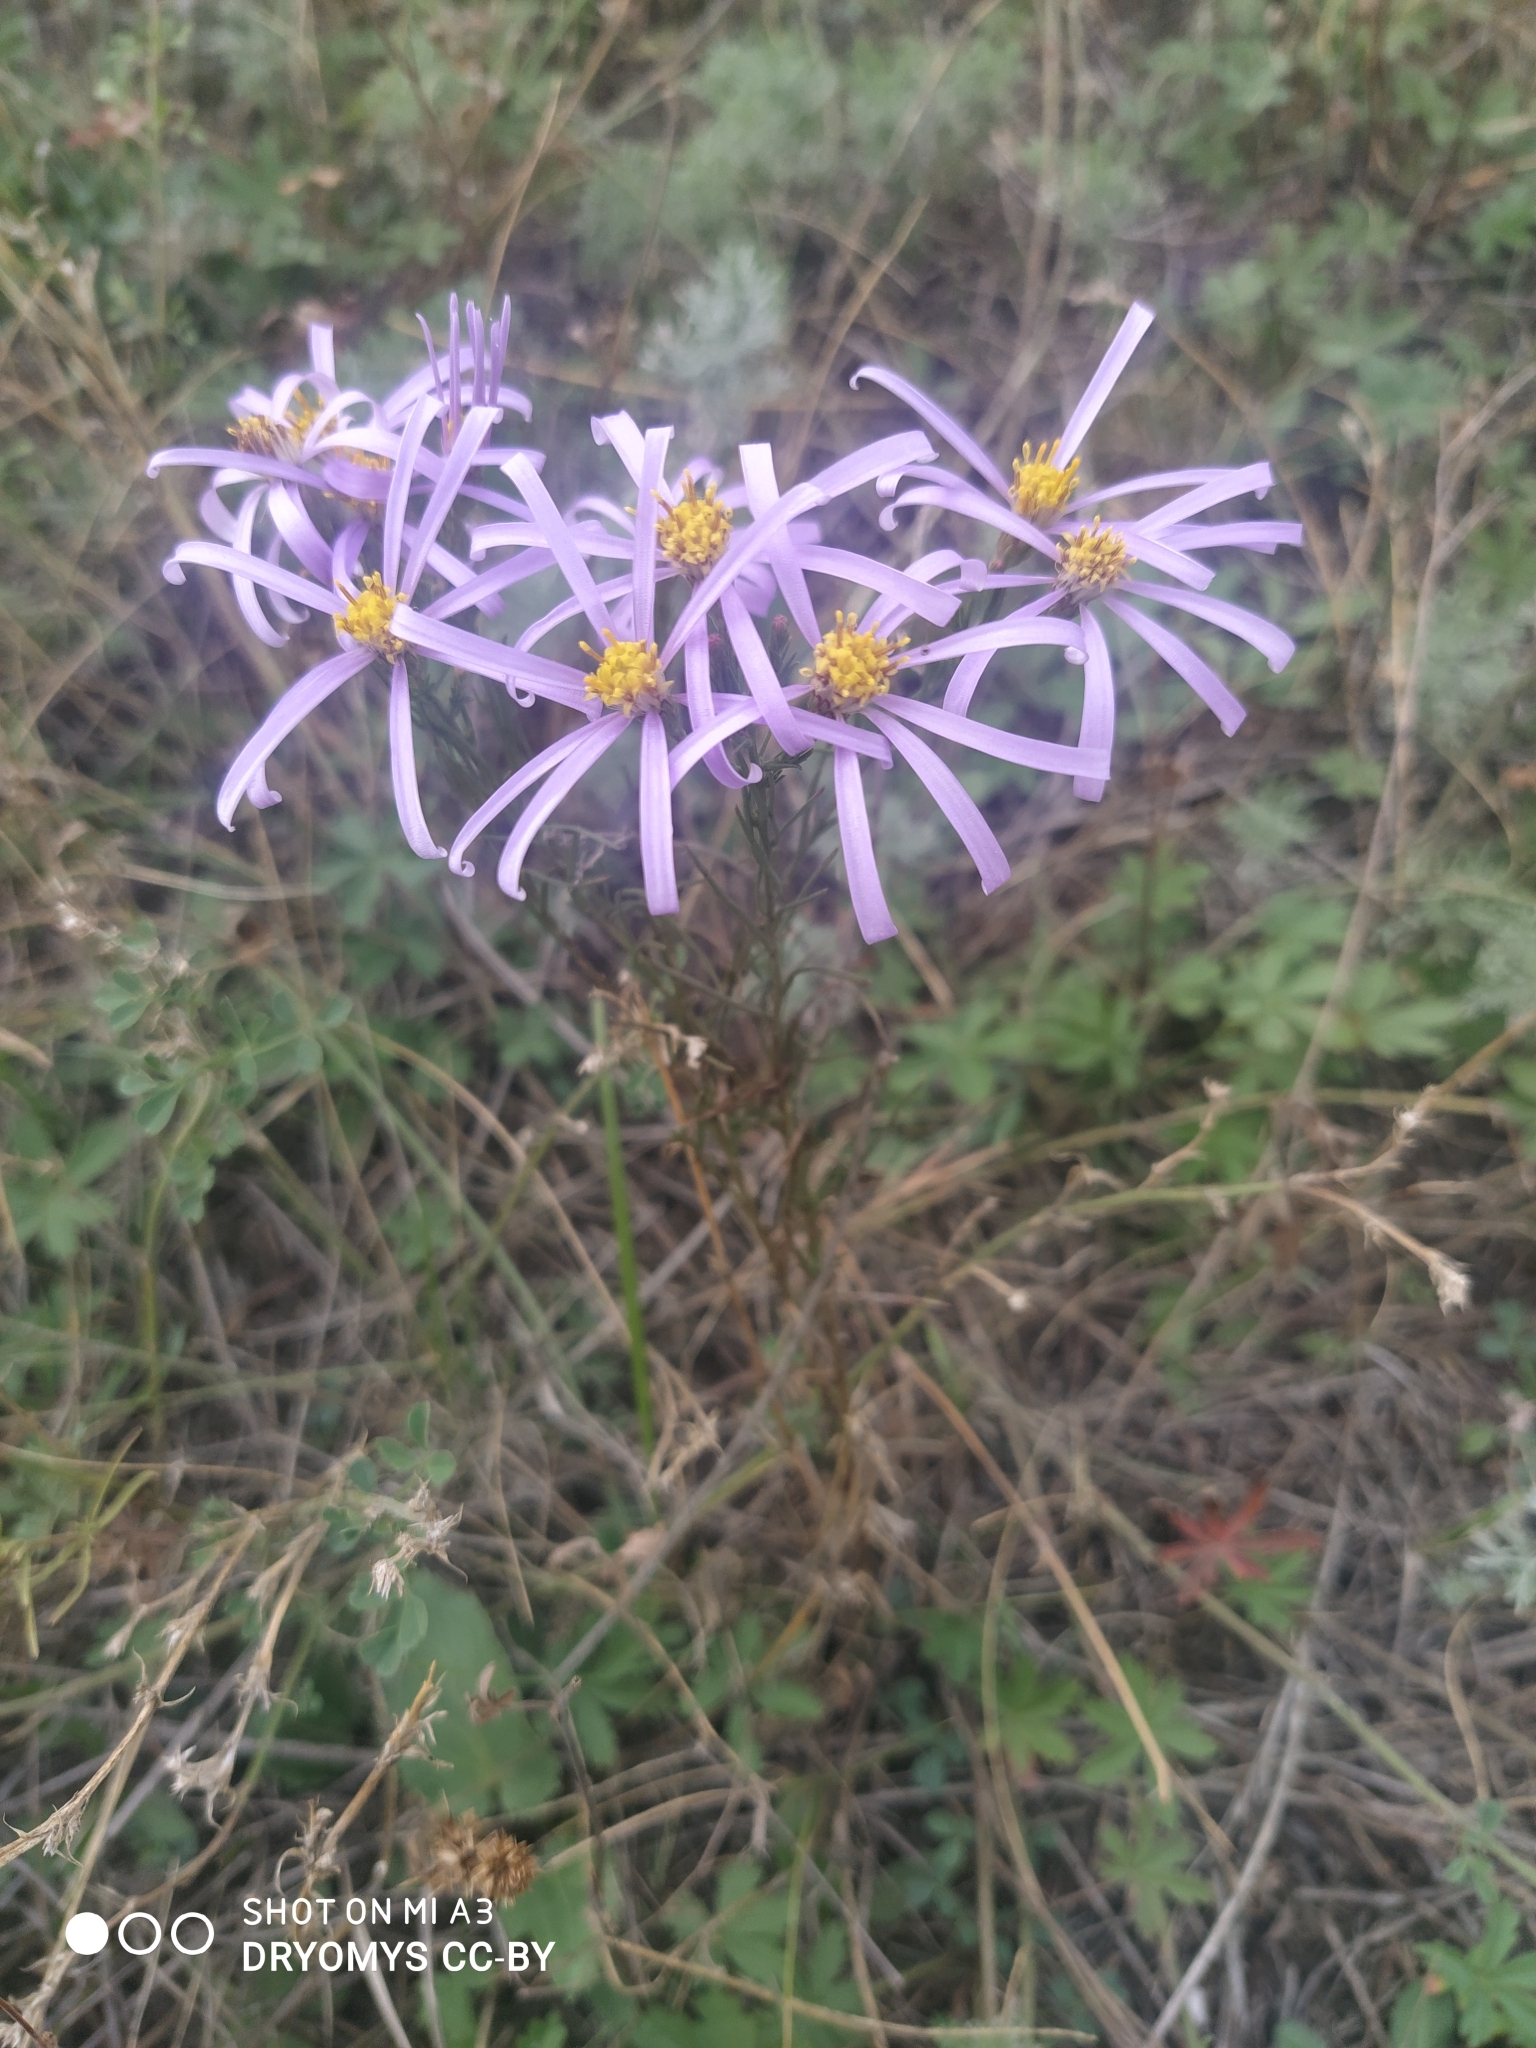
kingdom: Plantae
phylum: Tracheophyta
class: Magnoliopsida
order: Asterales
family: Asteraceae
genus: Galatella
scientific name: Galatella angustissima
